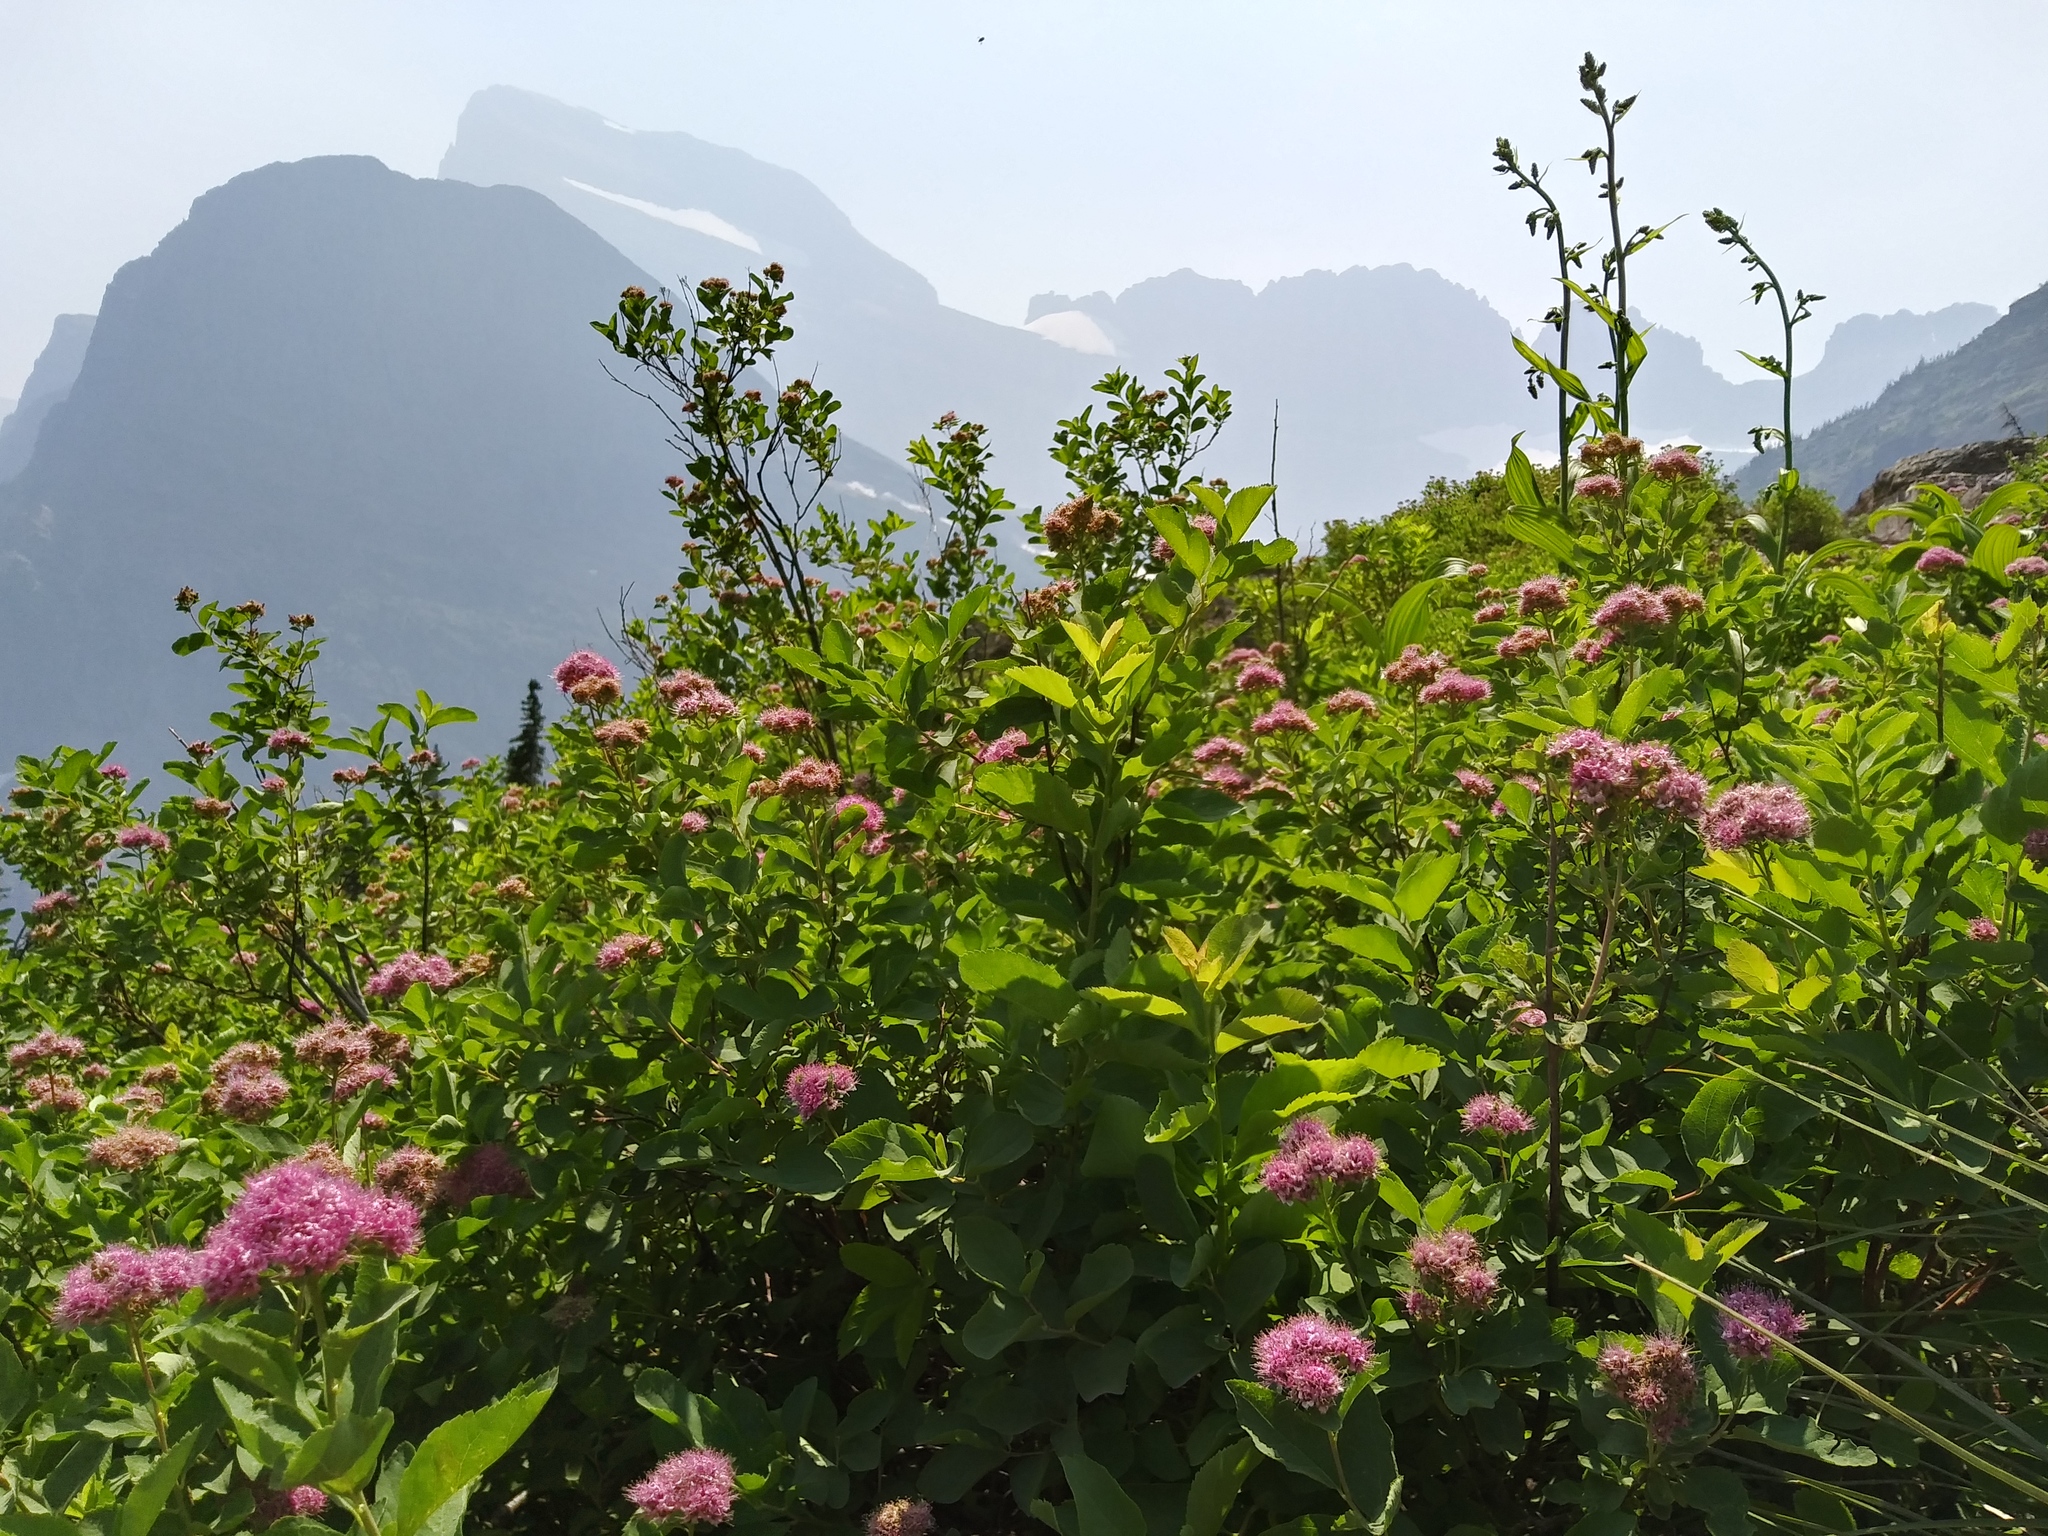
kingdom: Plantae
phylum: Tracheophyta
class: Magnoliopsida
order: Rosales
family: Rosaceae
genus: Spiraea
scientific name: Spiraea splendens
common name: Subalpine meadowsweet
